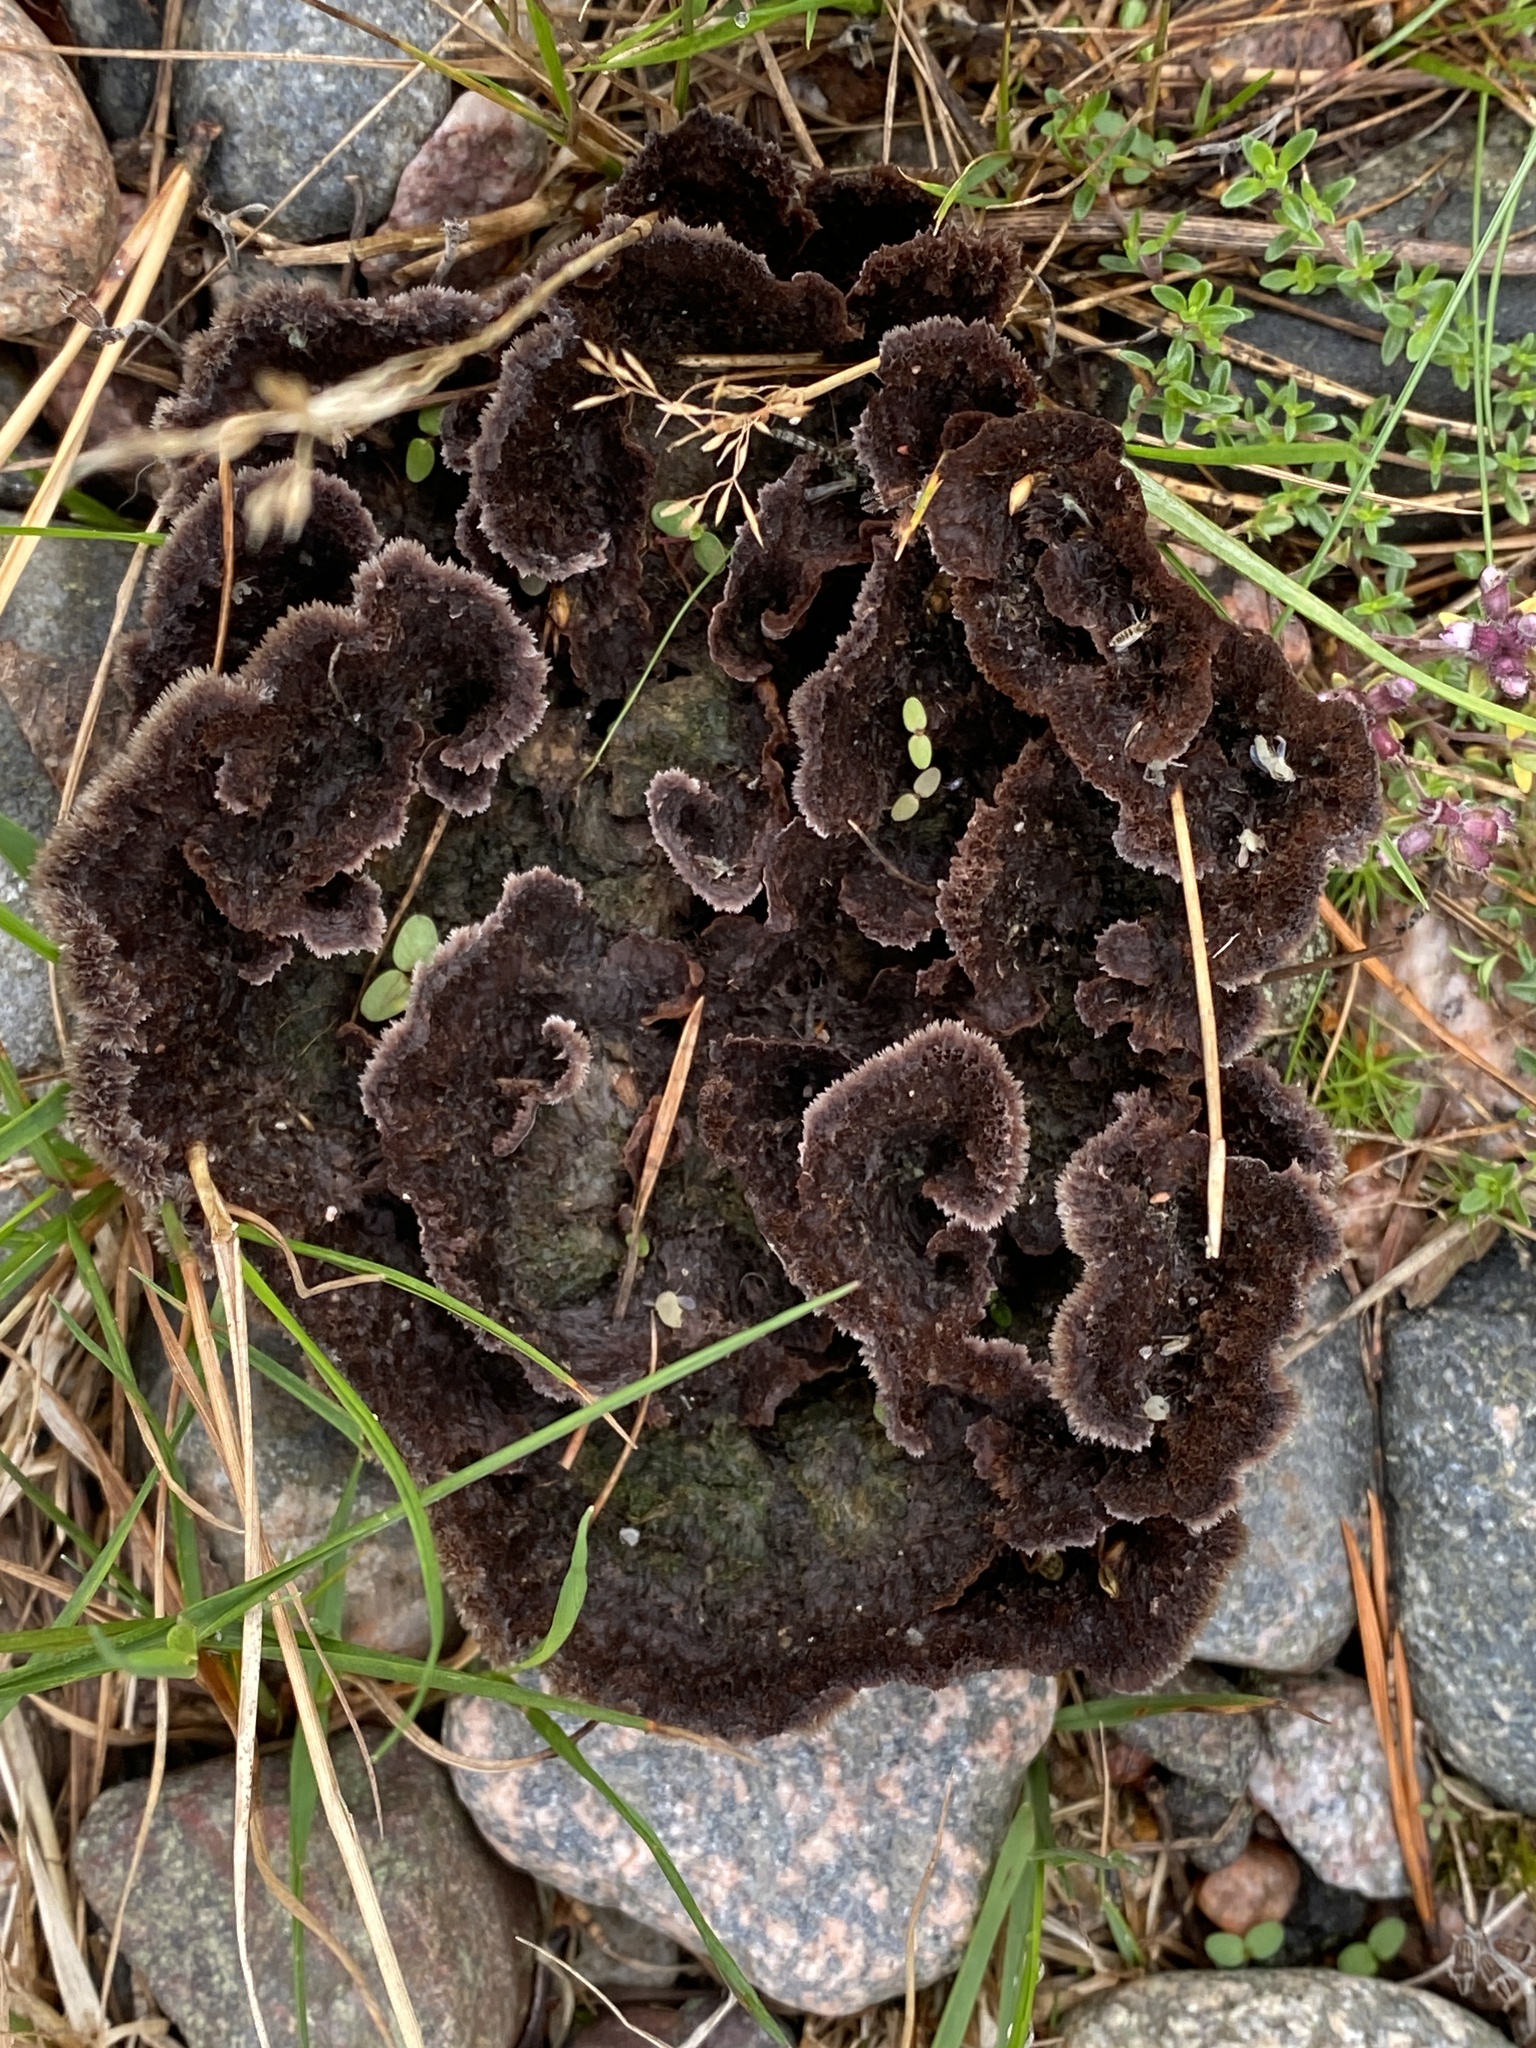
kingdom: Fungi
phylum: Basidiomycota
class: Agaricomycetes
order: Thelephorales
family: Thelephoraceae
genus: Thelephora
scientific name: Thelephora terrestris
